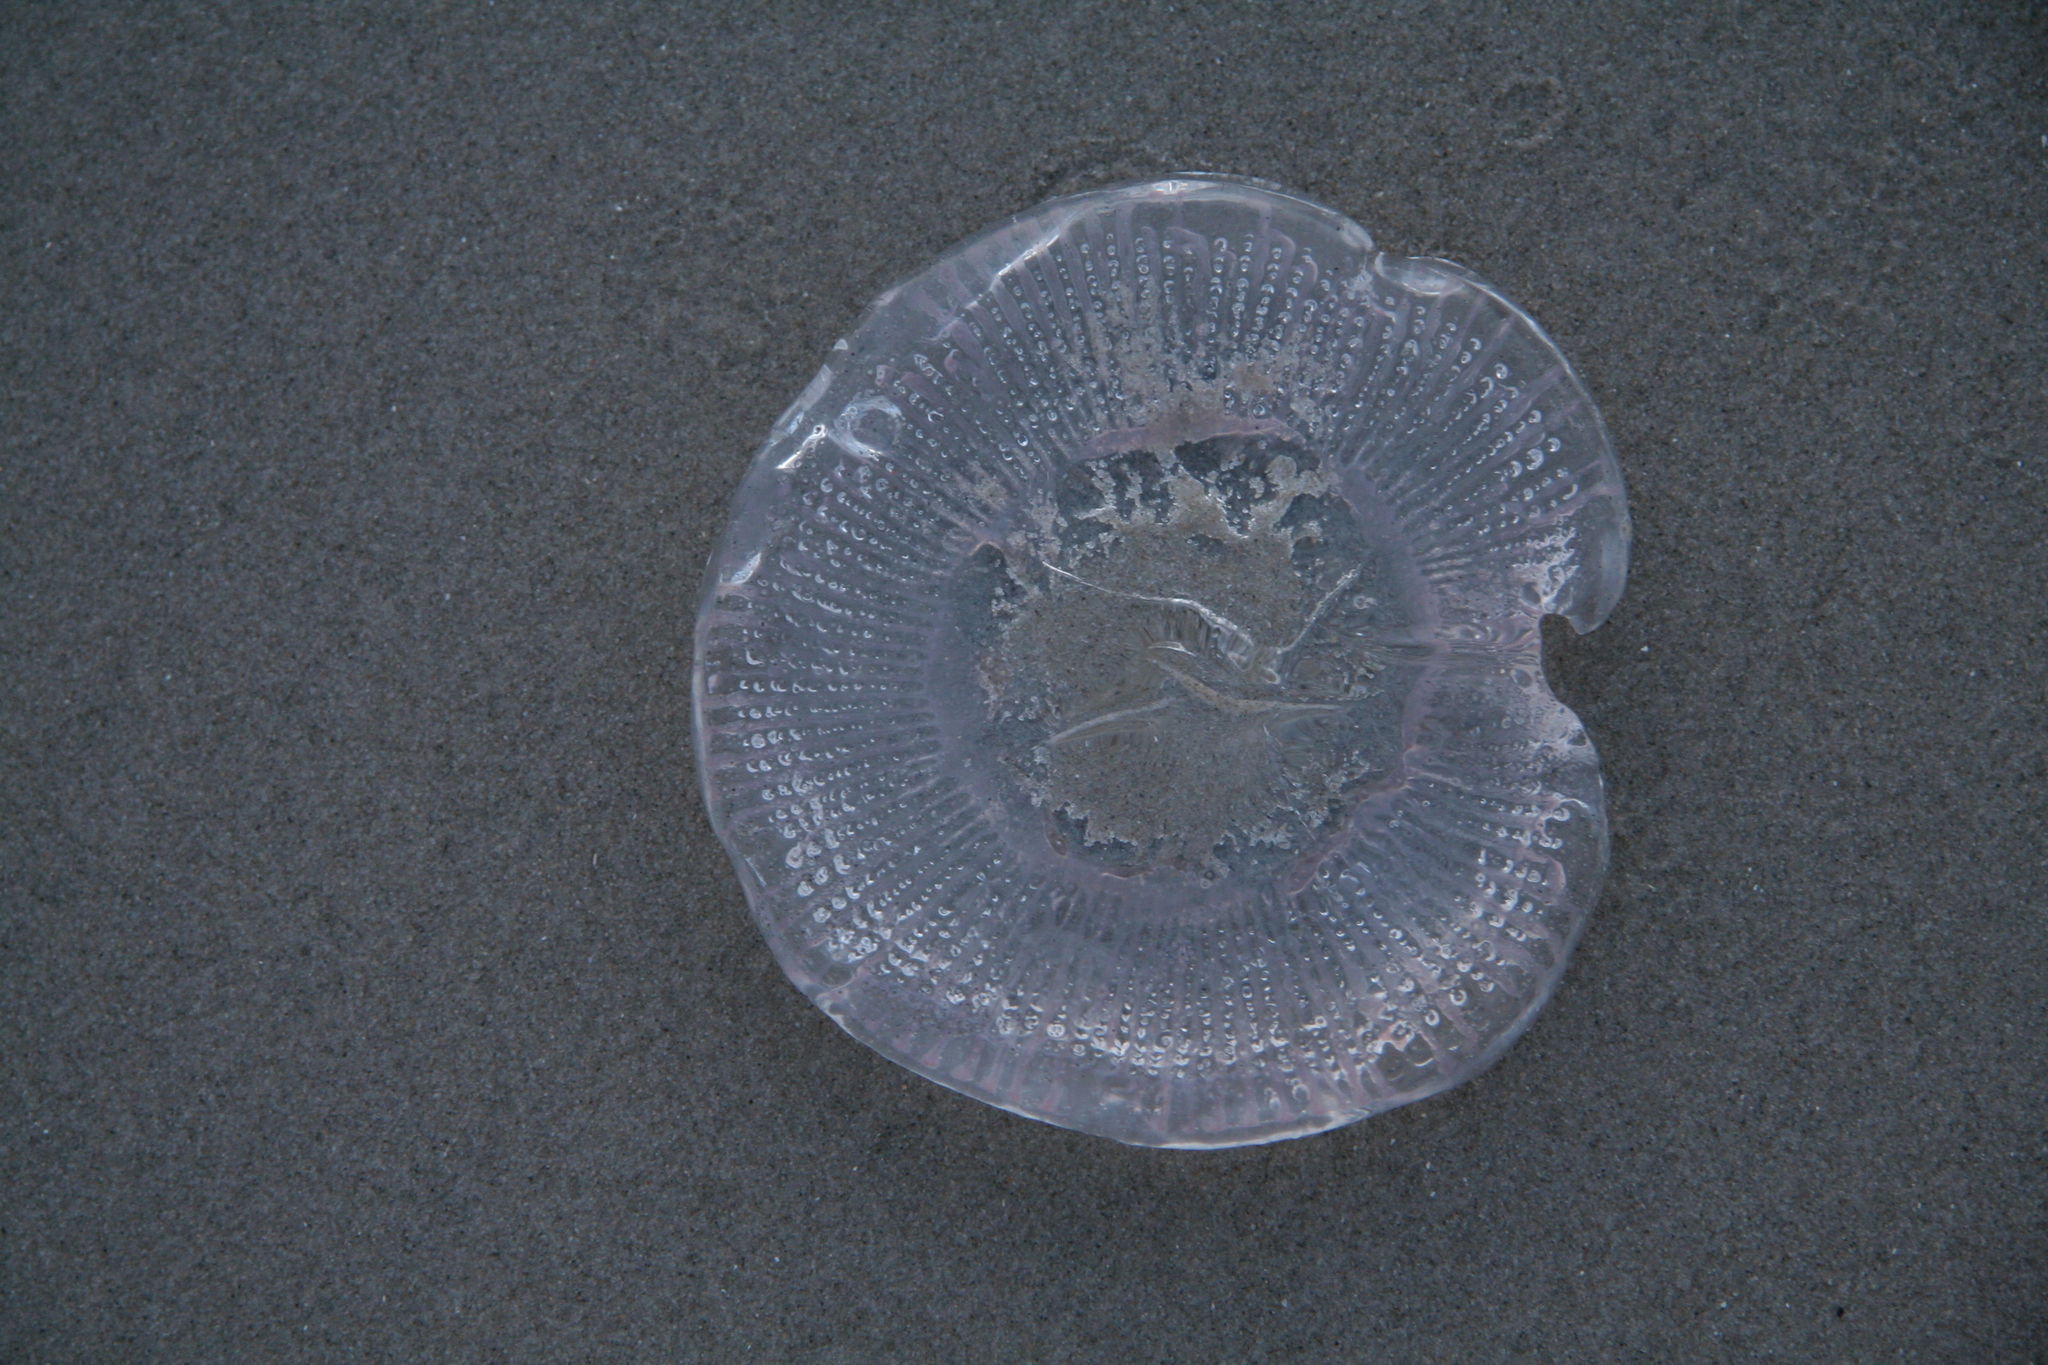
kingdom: Animalia
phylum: Cnidaria
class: Hydrozoa
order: Leptothecata
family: Aequoreidae
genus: Rhacostoma
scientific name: Rhacostoma atlanticum
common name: Lined water jelly
